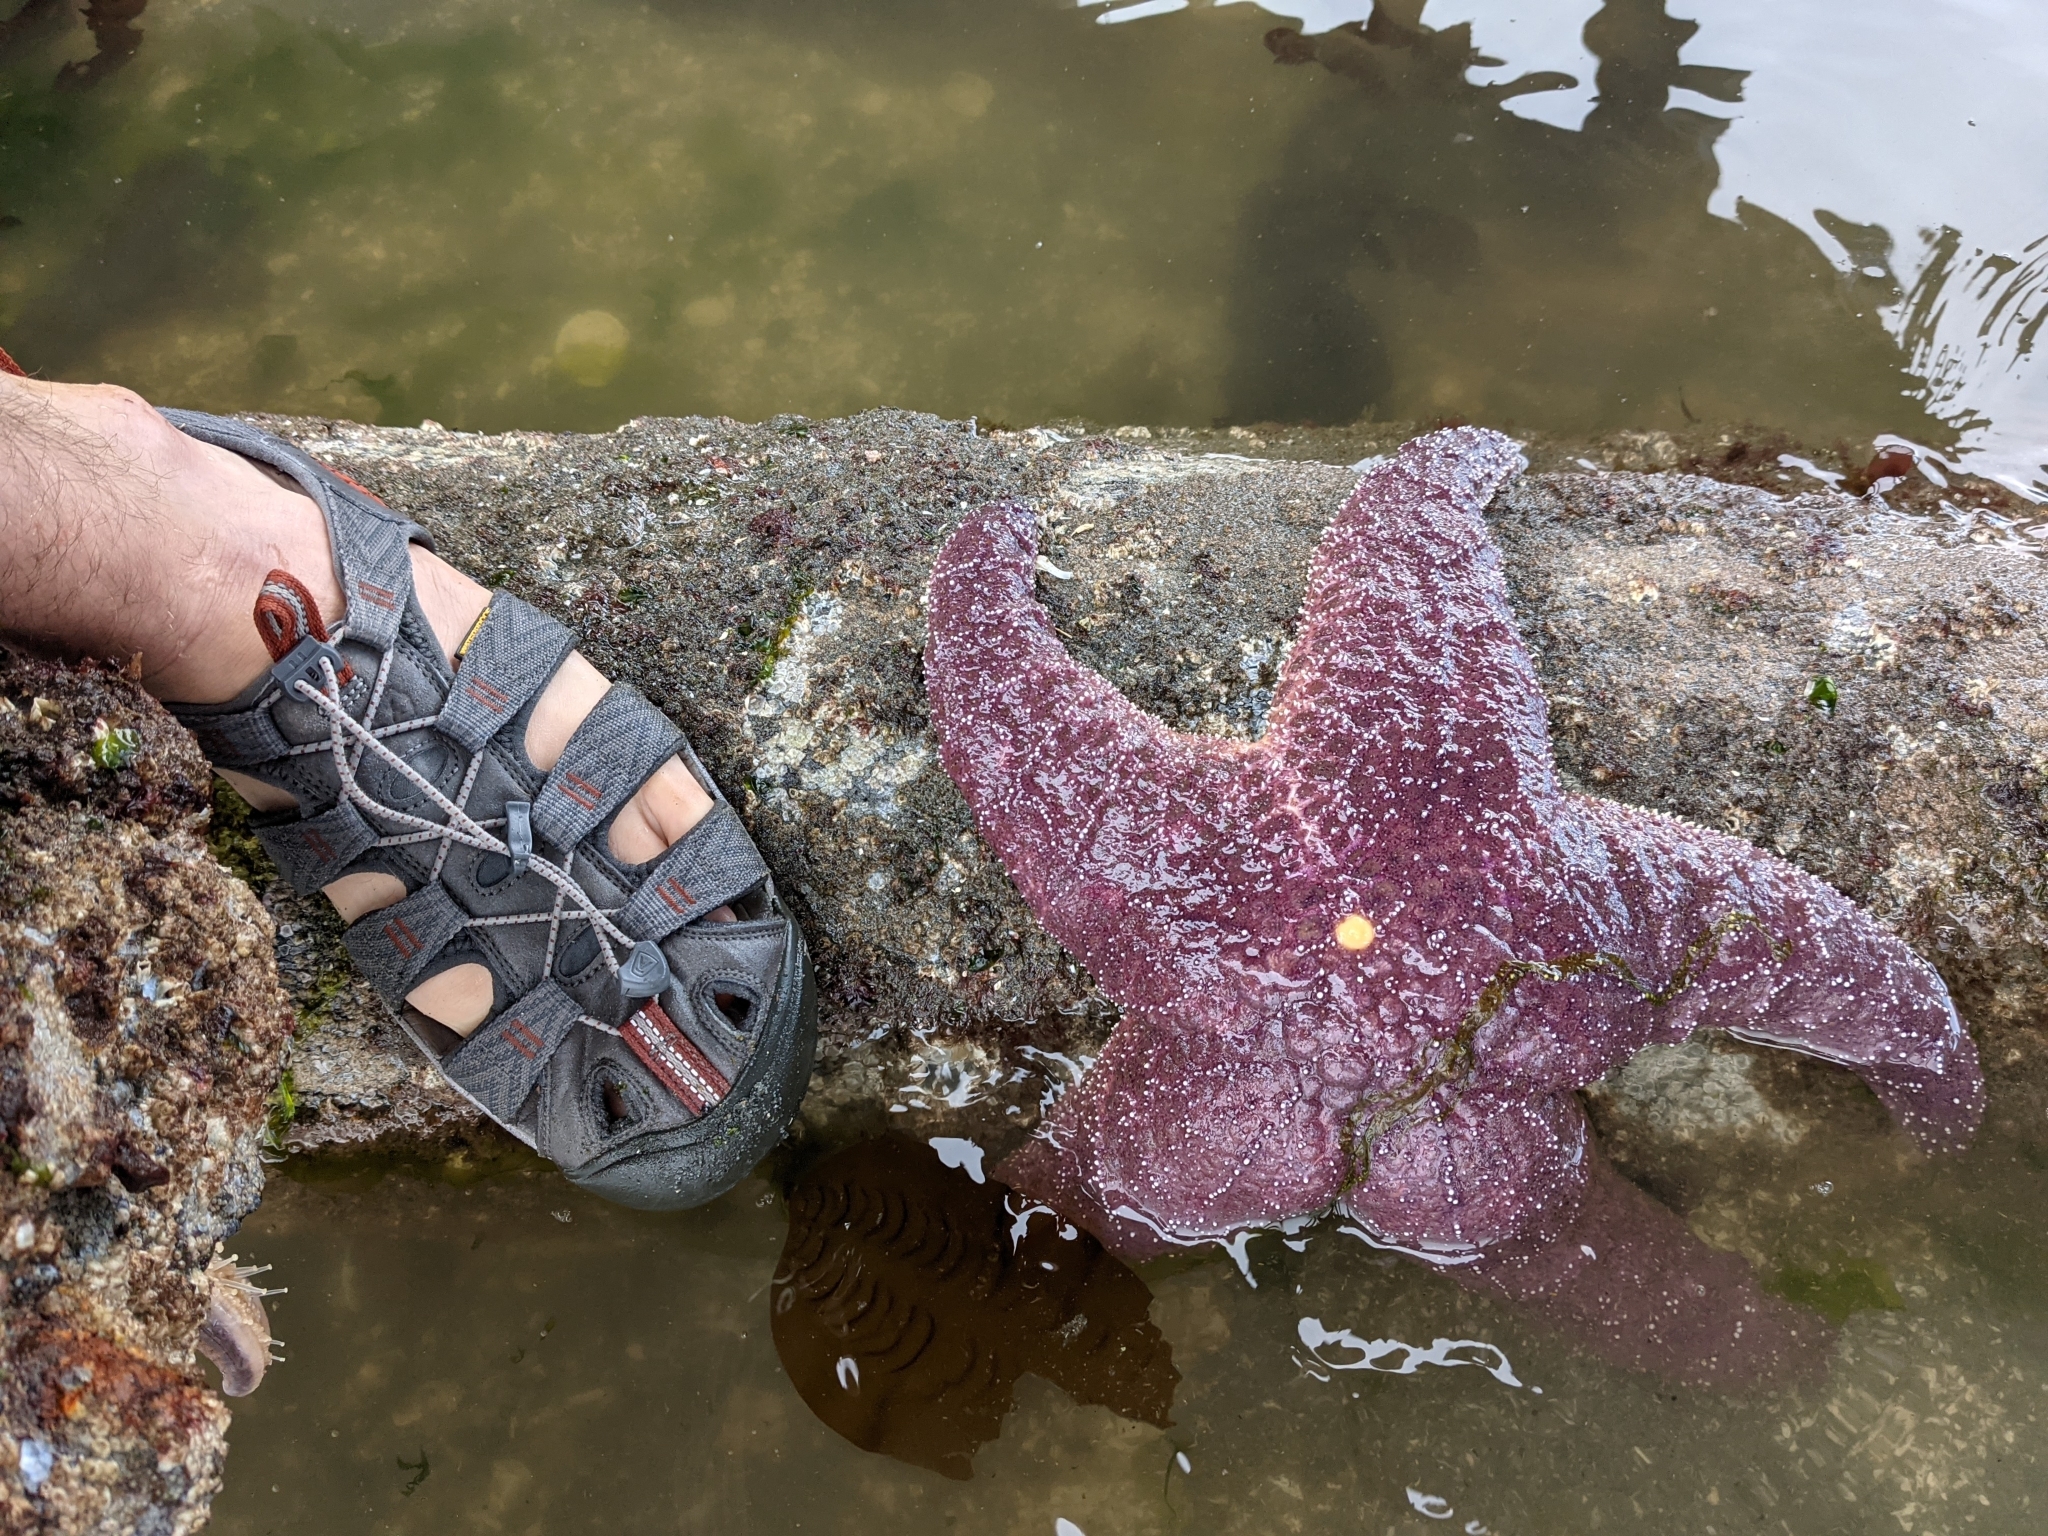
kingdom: Animalia
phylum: Echinodermata
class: Asteroidea
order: Forcipulatida
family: Asteriidae
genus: Pisaster
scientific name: Pisaster ochraceus
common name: Ochre stars
